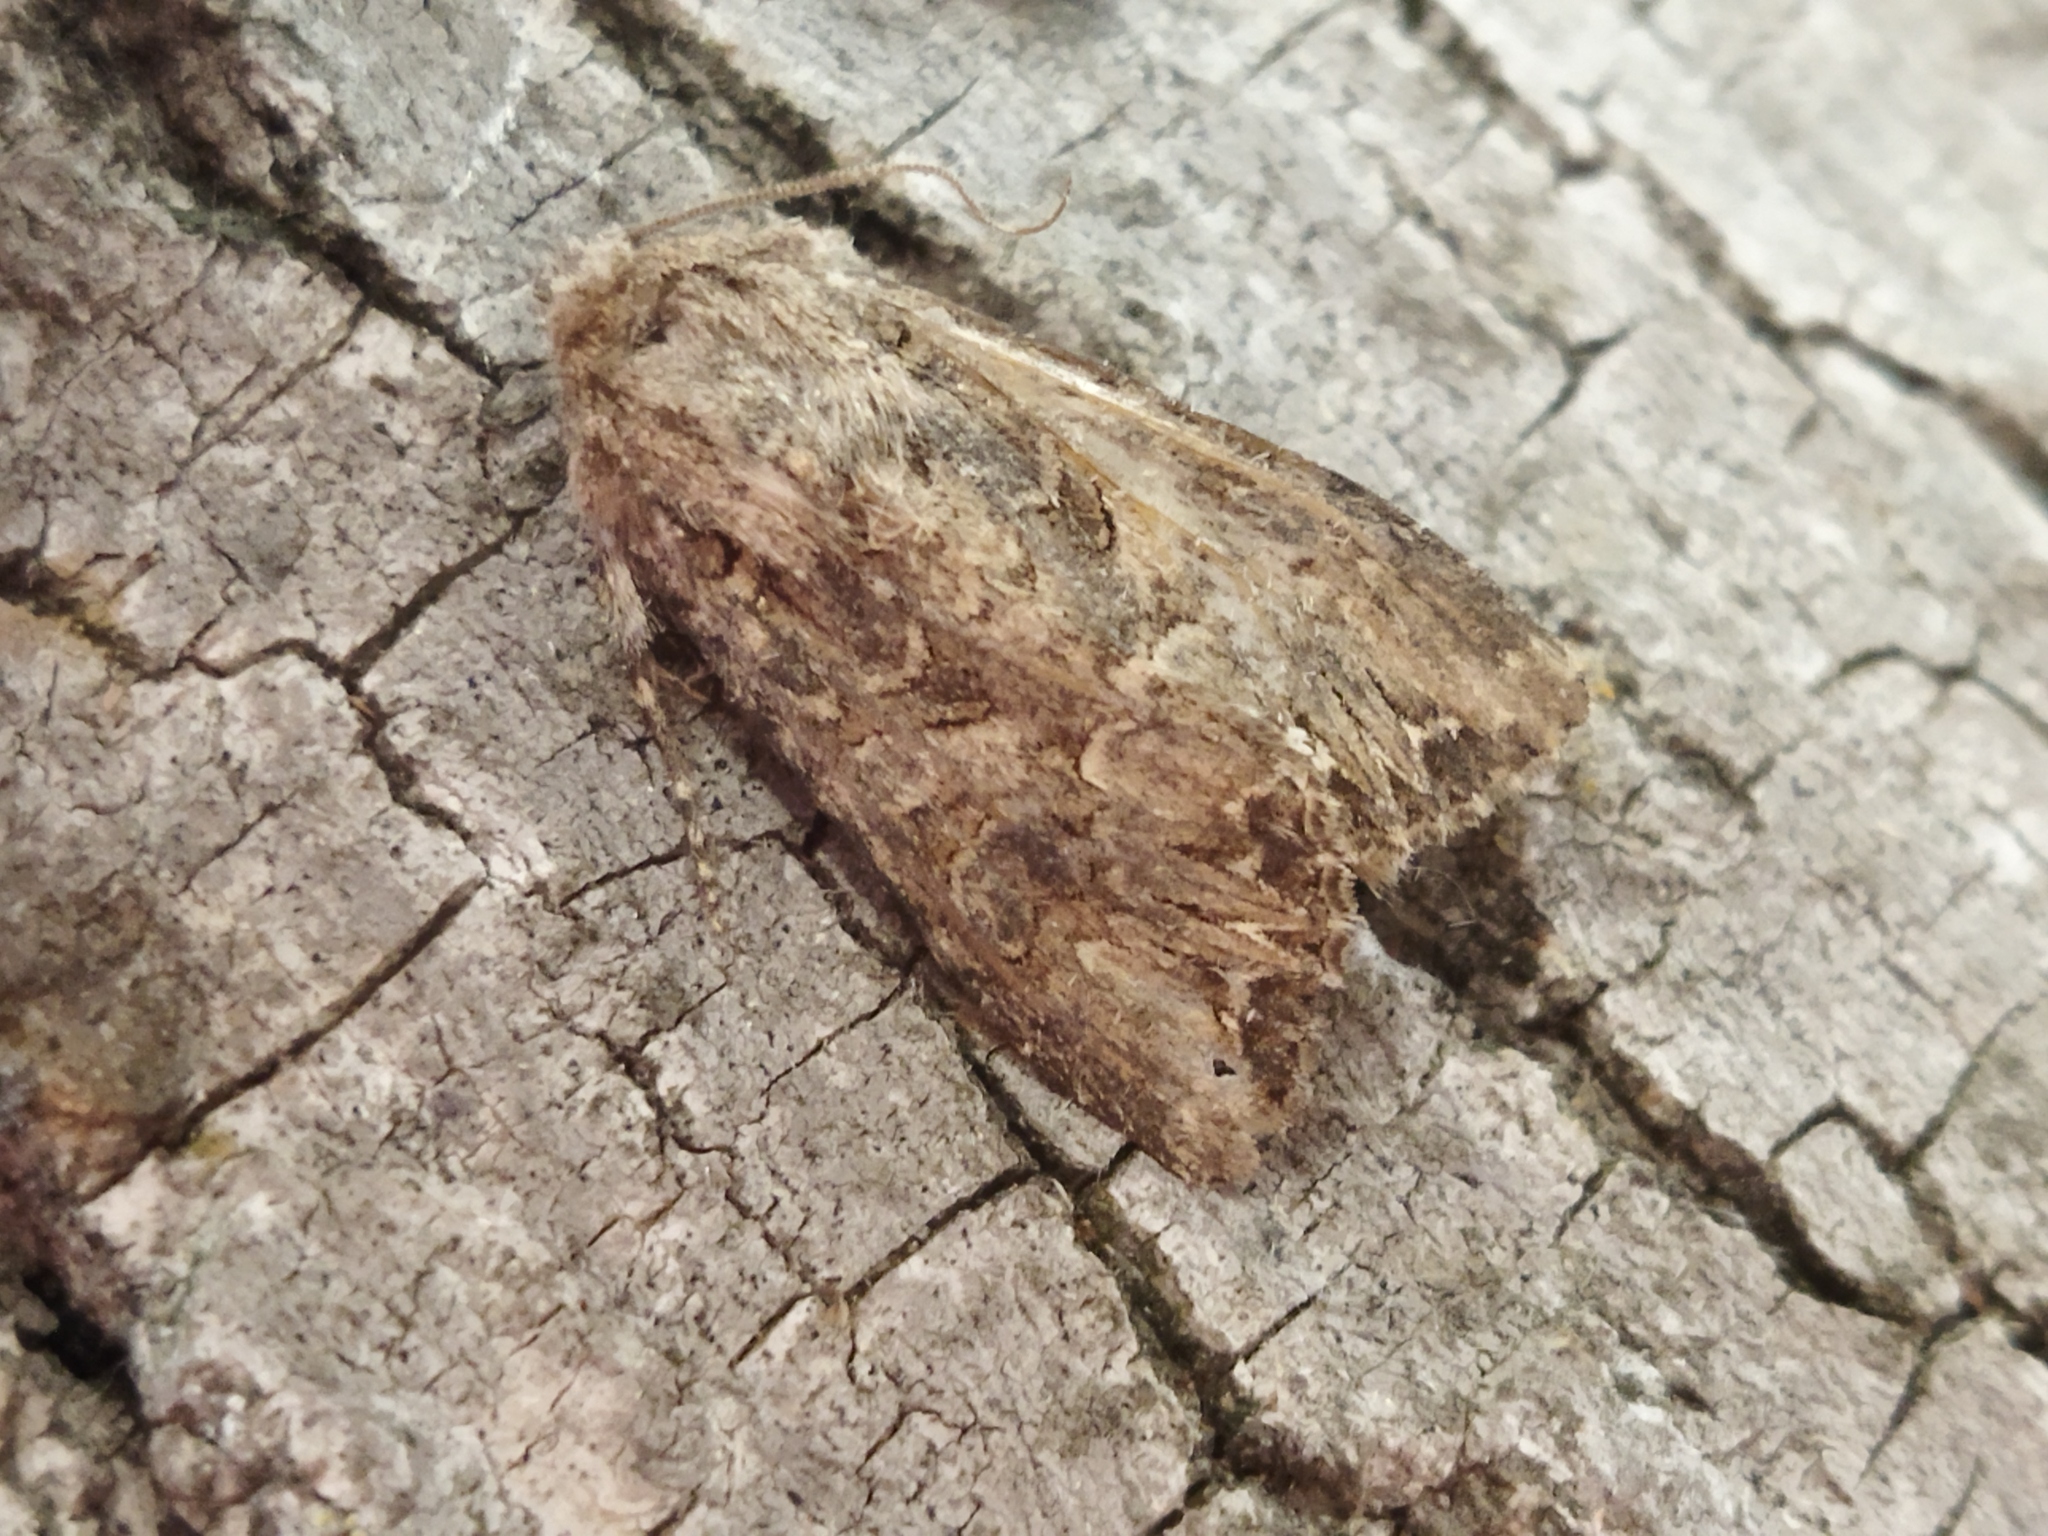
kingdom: Animalia
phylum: Arthropoda
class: Insecta
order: Lepidoptera
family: Noctuidae
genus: Anarta
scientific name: Anarta trifolii
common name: Clover cutworm moth
